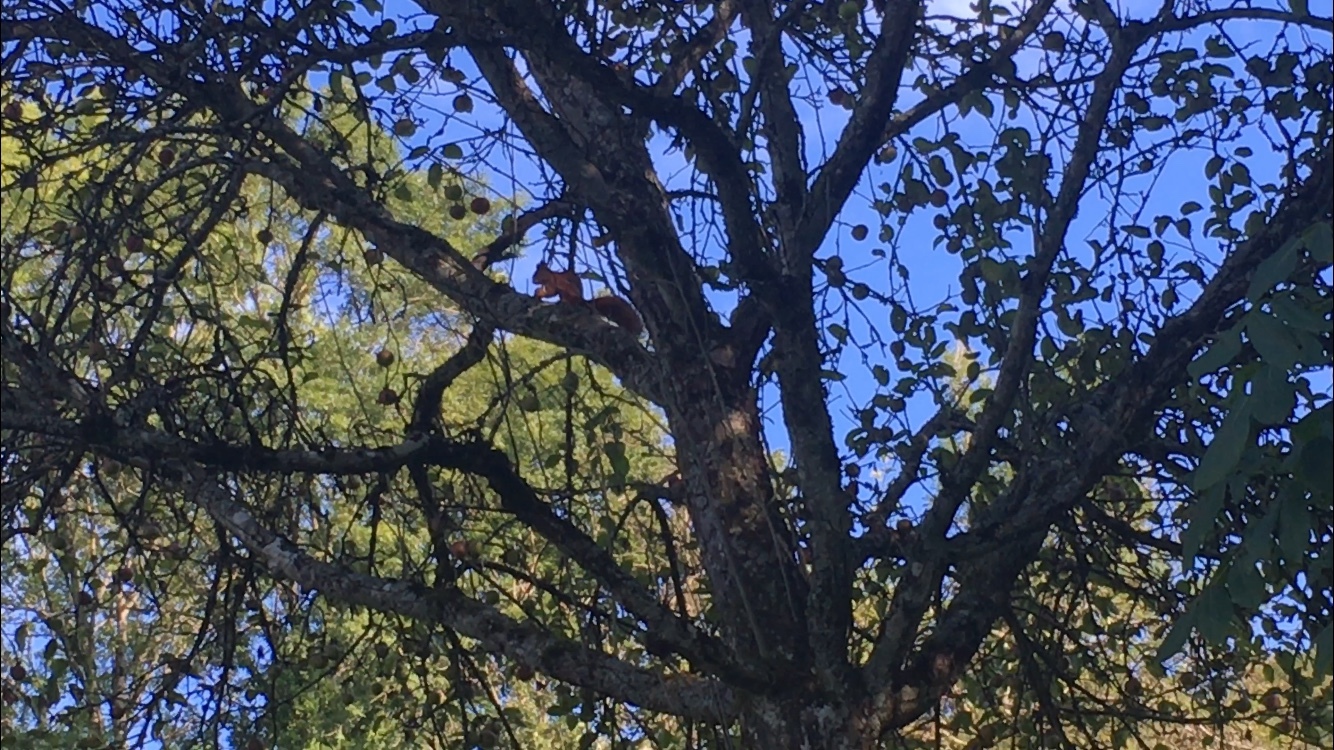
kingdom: Animalia
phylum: Chordata
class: Mammalia
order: Rodentia
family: Sciuridae
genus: Sciurus
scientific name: Sciurus vulgaris
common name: Eurasian red squirrel
